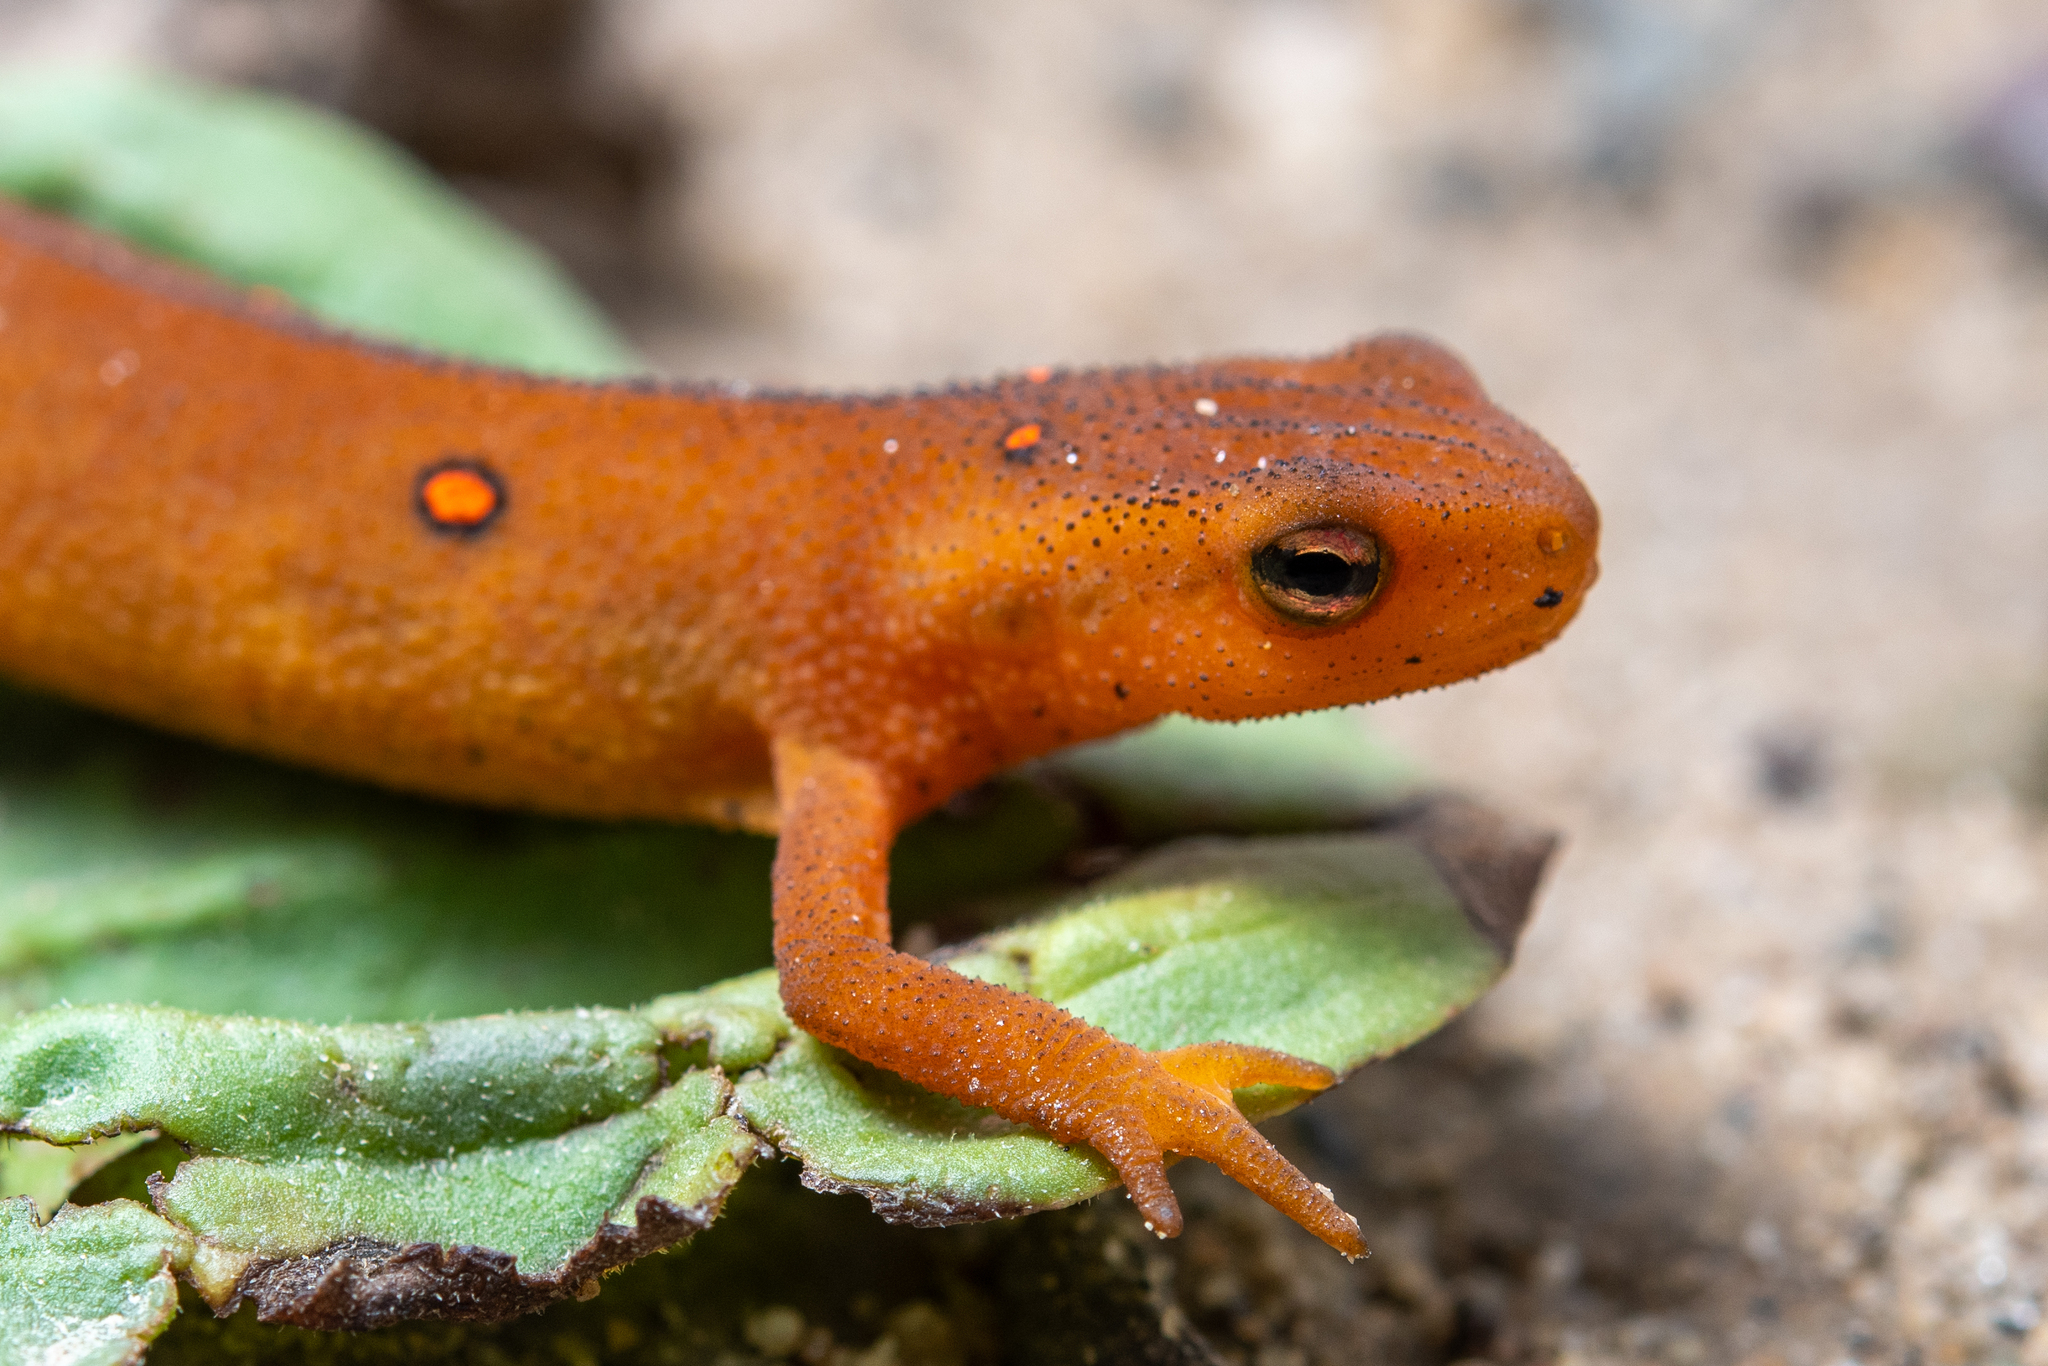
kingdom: Animalia
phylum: Chordata
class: Amphibia
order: Caudata
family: Salamandridae
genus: Notophthalmus
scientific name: Notophthalmus viridescens
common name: Eastern newt
